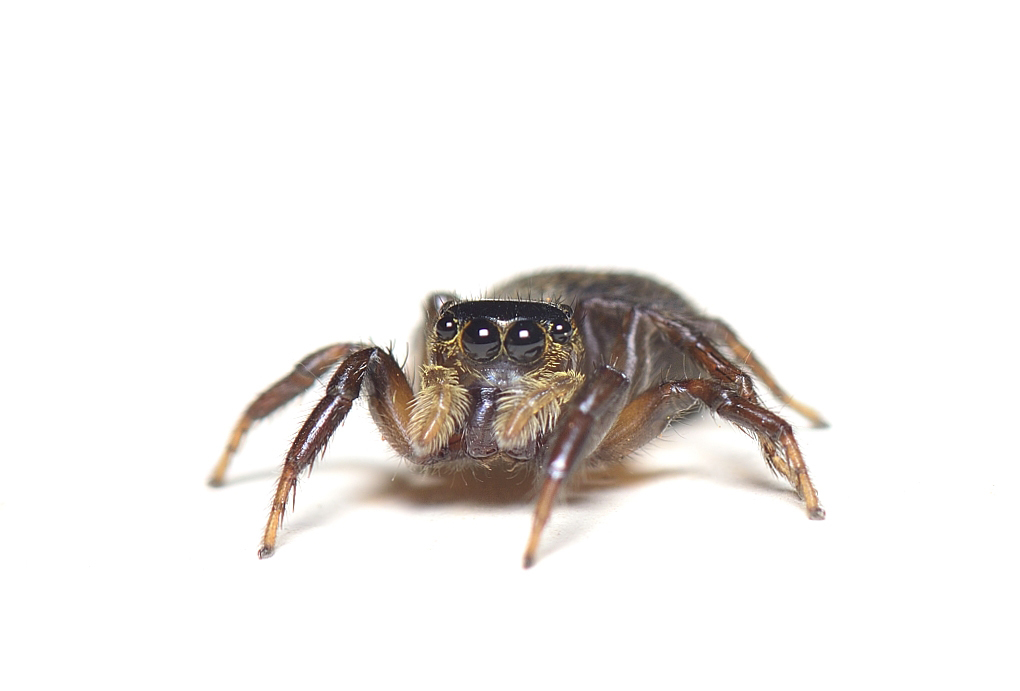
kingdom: Animalia
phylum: Arthropoda
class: Arachnida
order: Araneae
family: Salticidae
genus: Hasarius
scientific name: Hasarius adansoni
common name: Jumping spider
